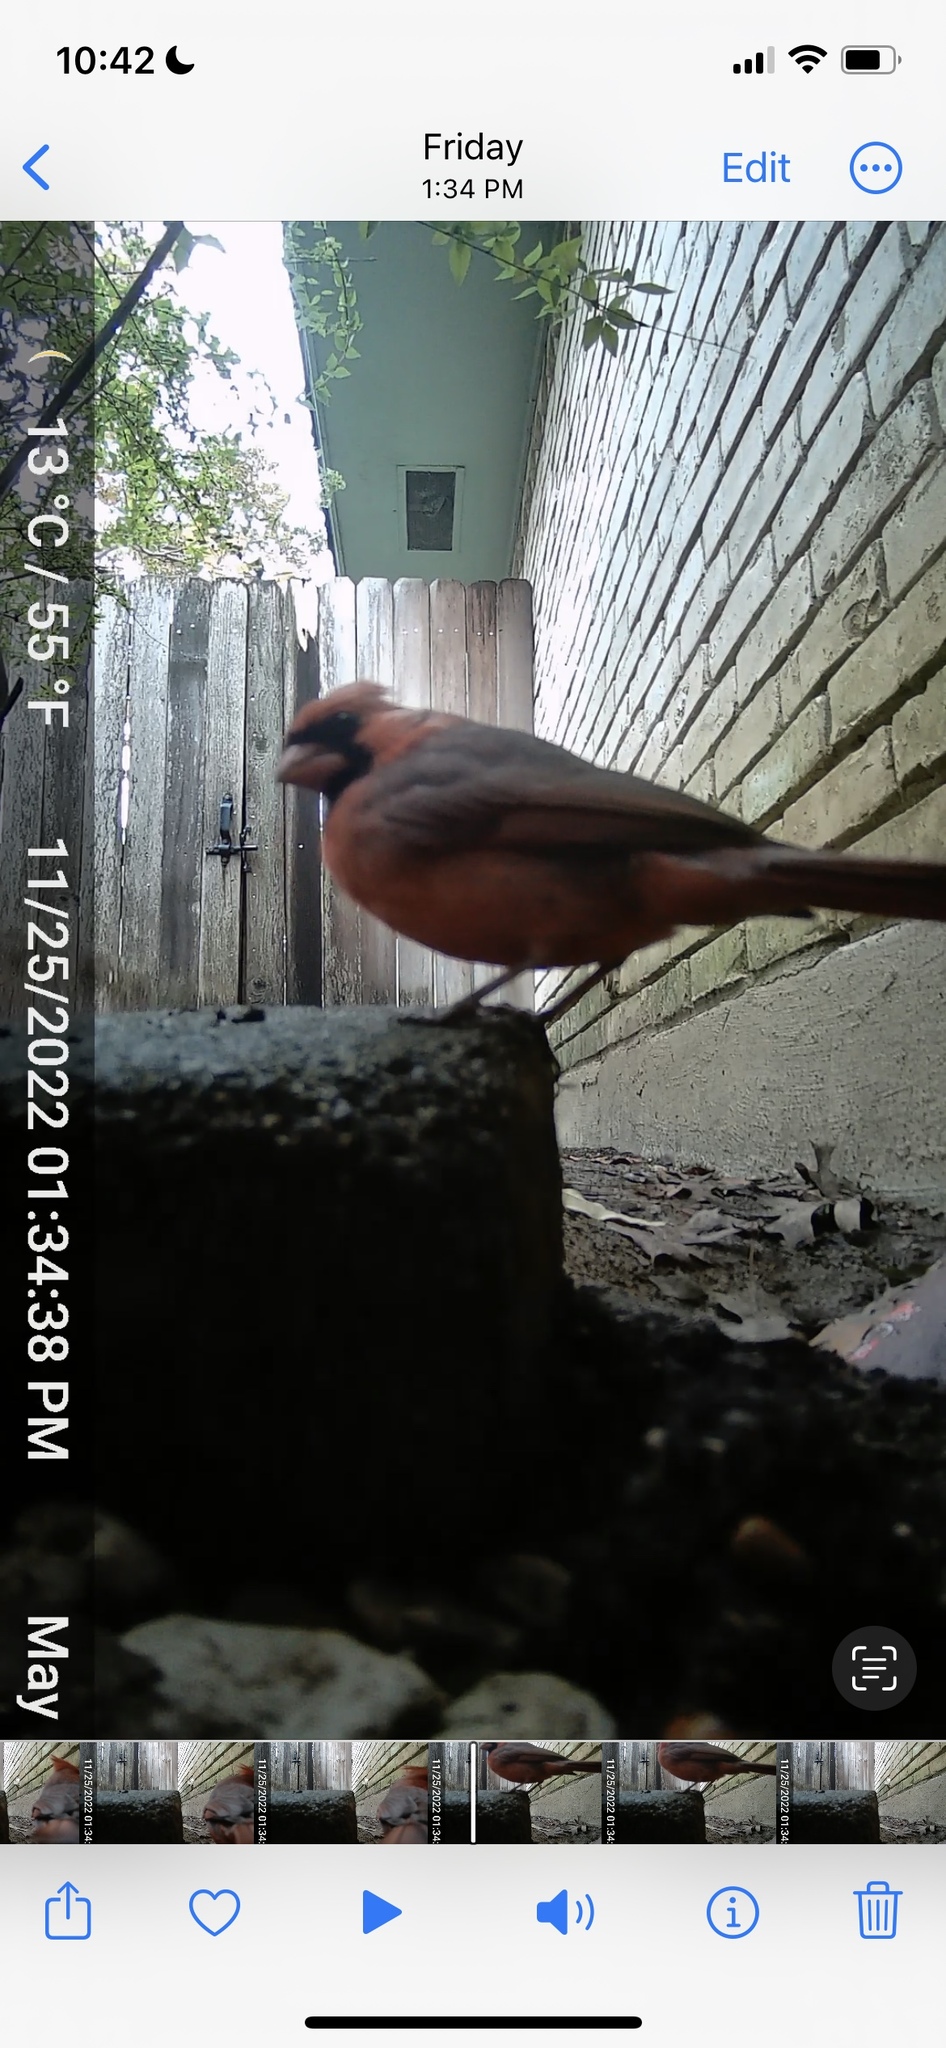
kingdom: Animalia
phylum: Chordata
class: Aves
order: Passeriformes
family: Cardinalidae
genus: Cardinalis
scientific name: Cardinalis cardinalis
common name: Northern cardinal
